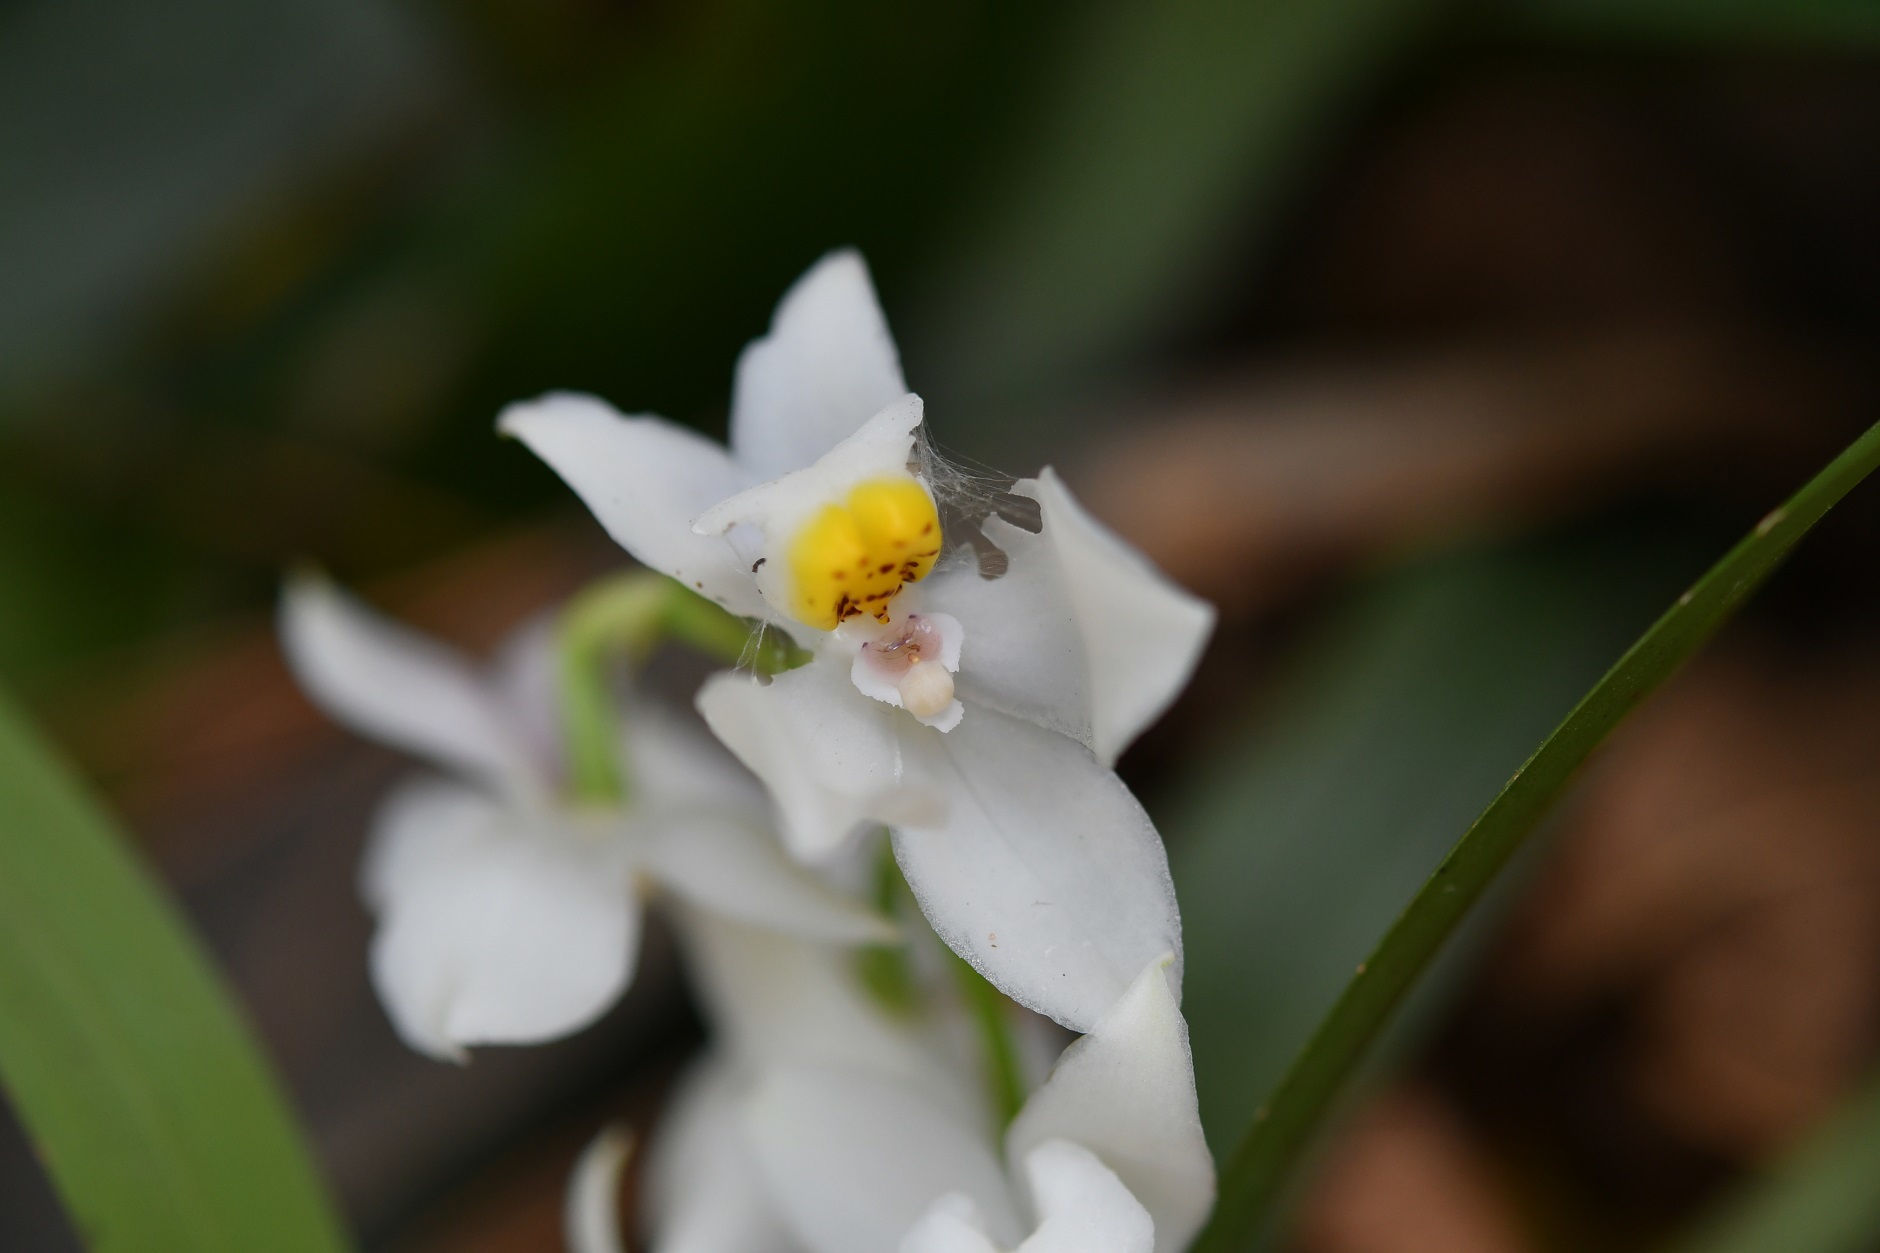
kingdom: Plantae
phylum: Tracheophyta
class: Liliopsida
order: Asparagales
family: Orchidaceae
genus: Cuitlauzina
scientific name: Cuitlauzina pulchella
